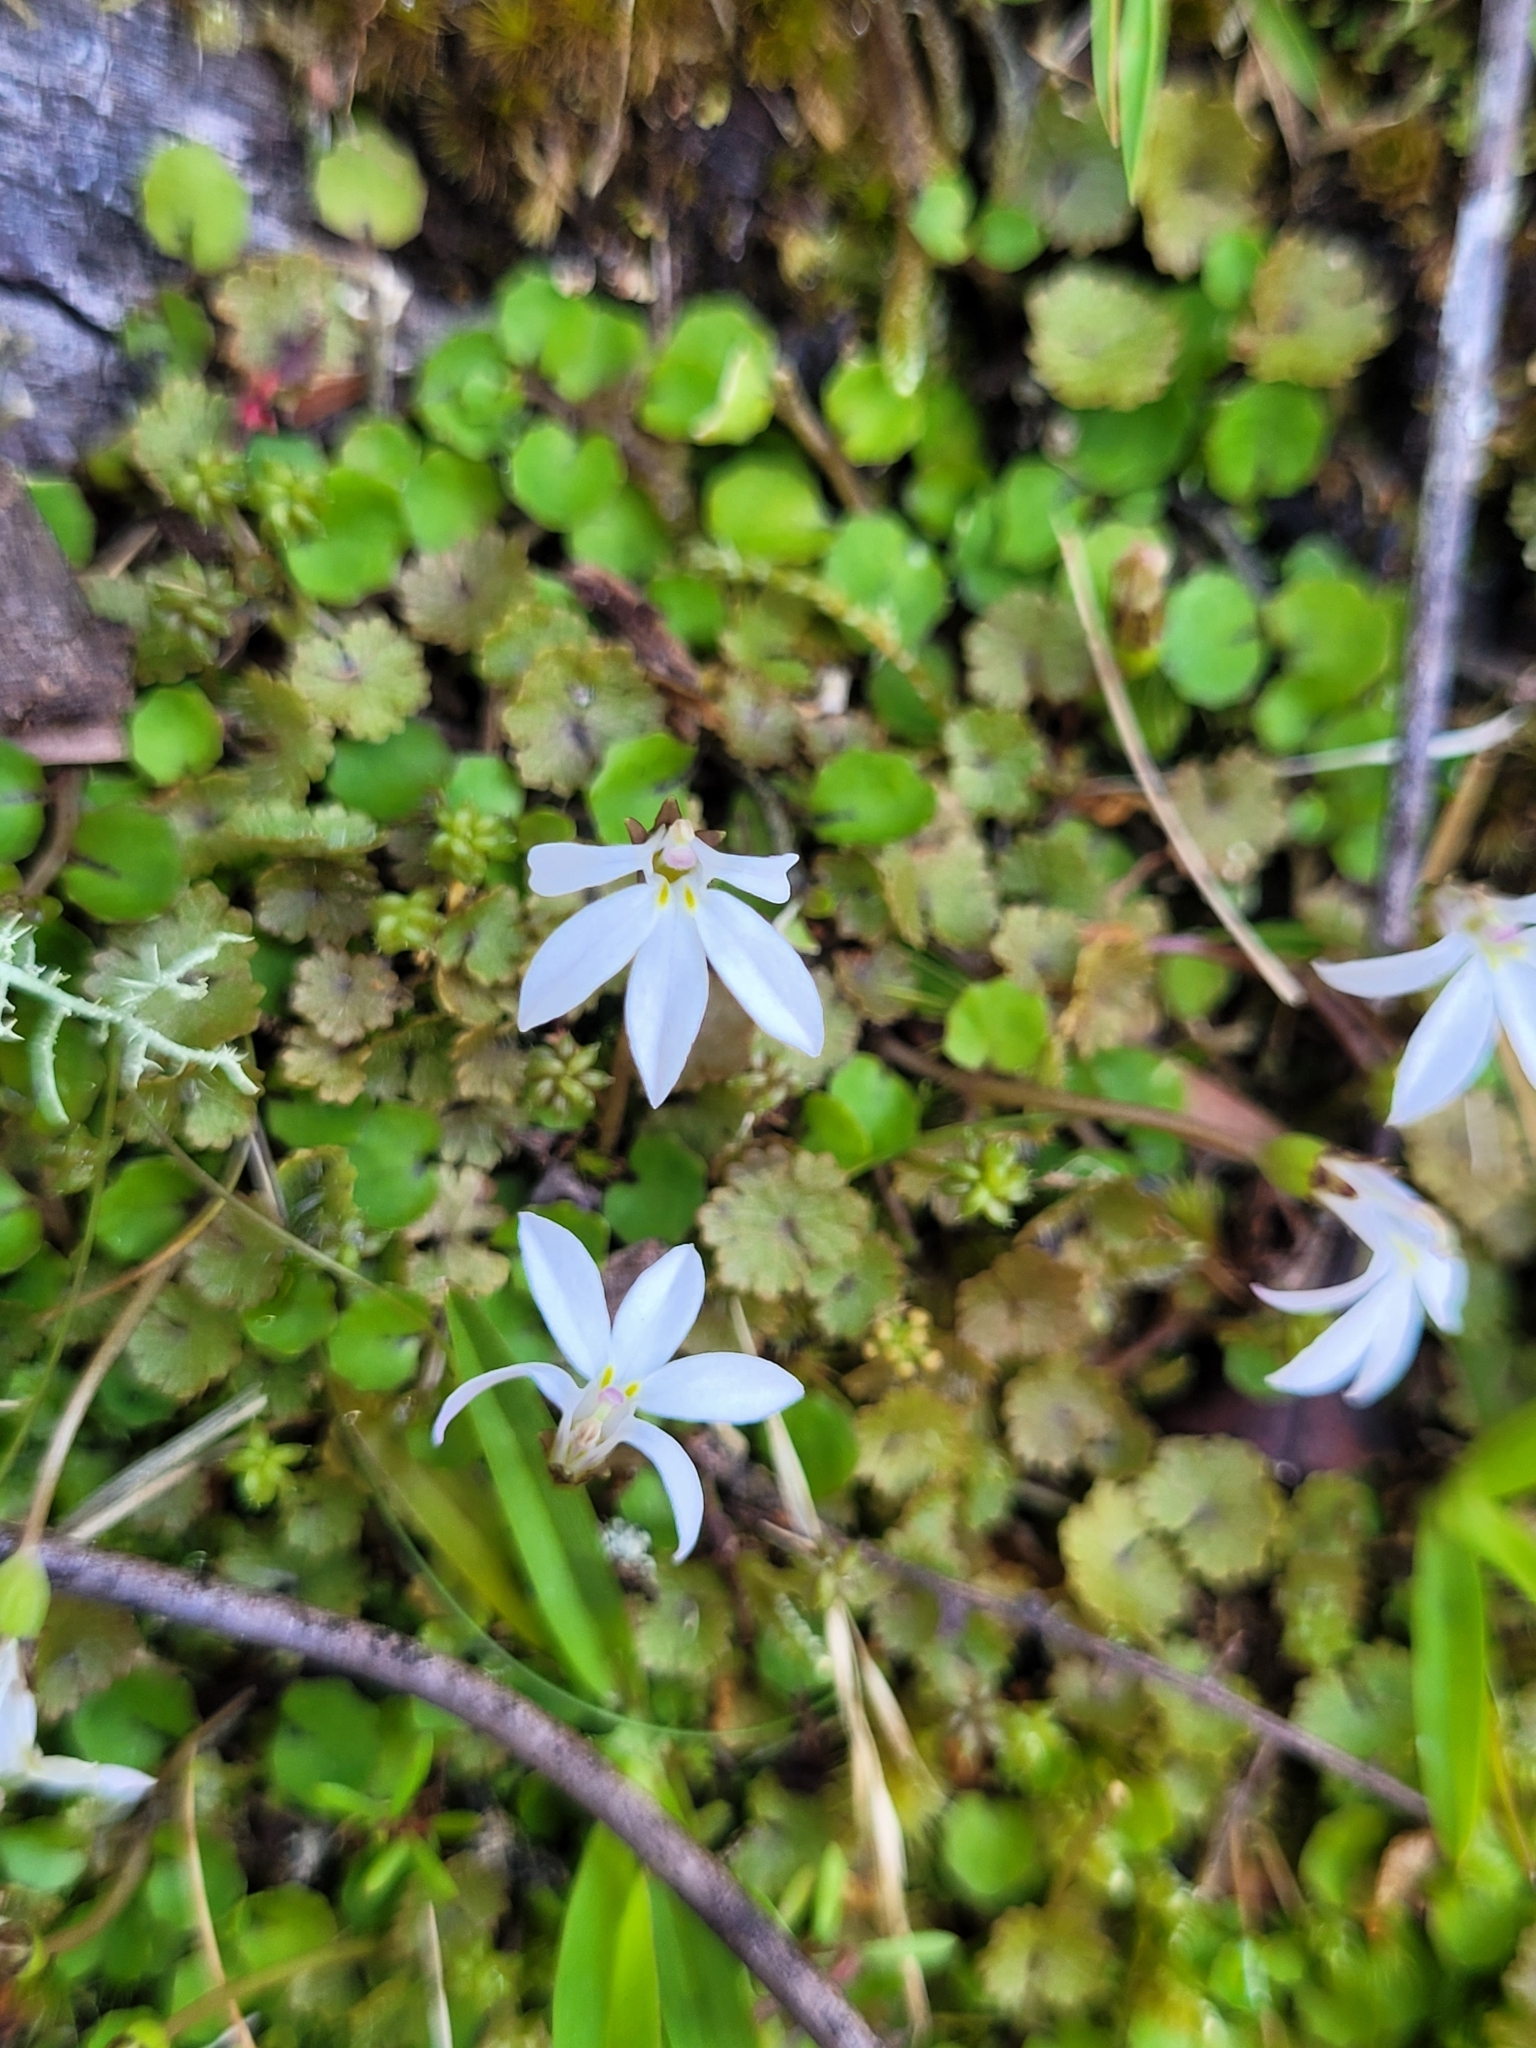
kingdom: Plantae
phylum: Tracheophyta
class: Magnoliopsida
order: Asterales
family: Campanulaceae
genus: Lobelia
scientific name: Lobelia angulata
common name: Lawn lobelia
